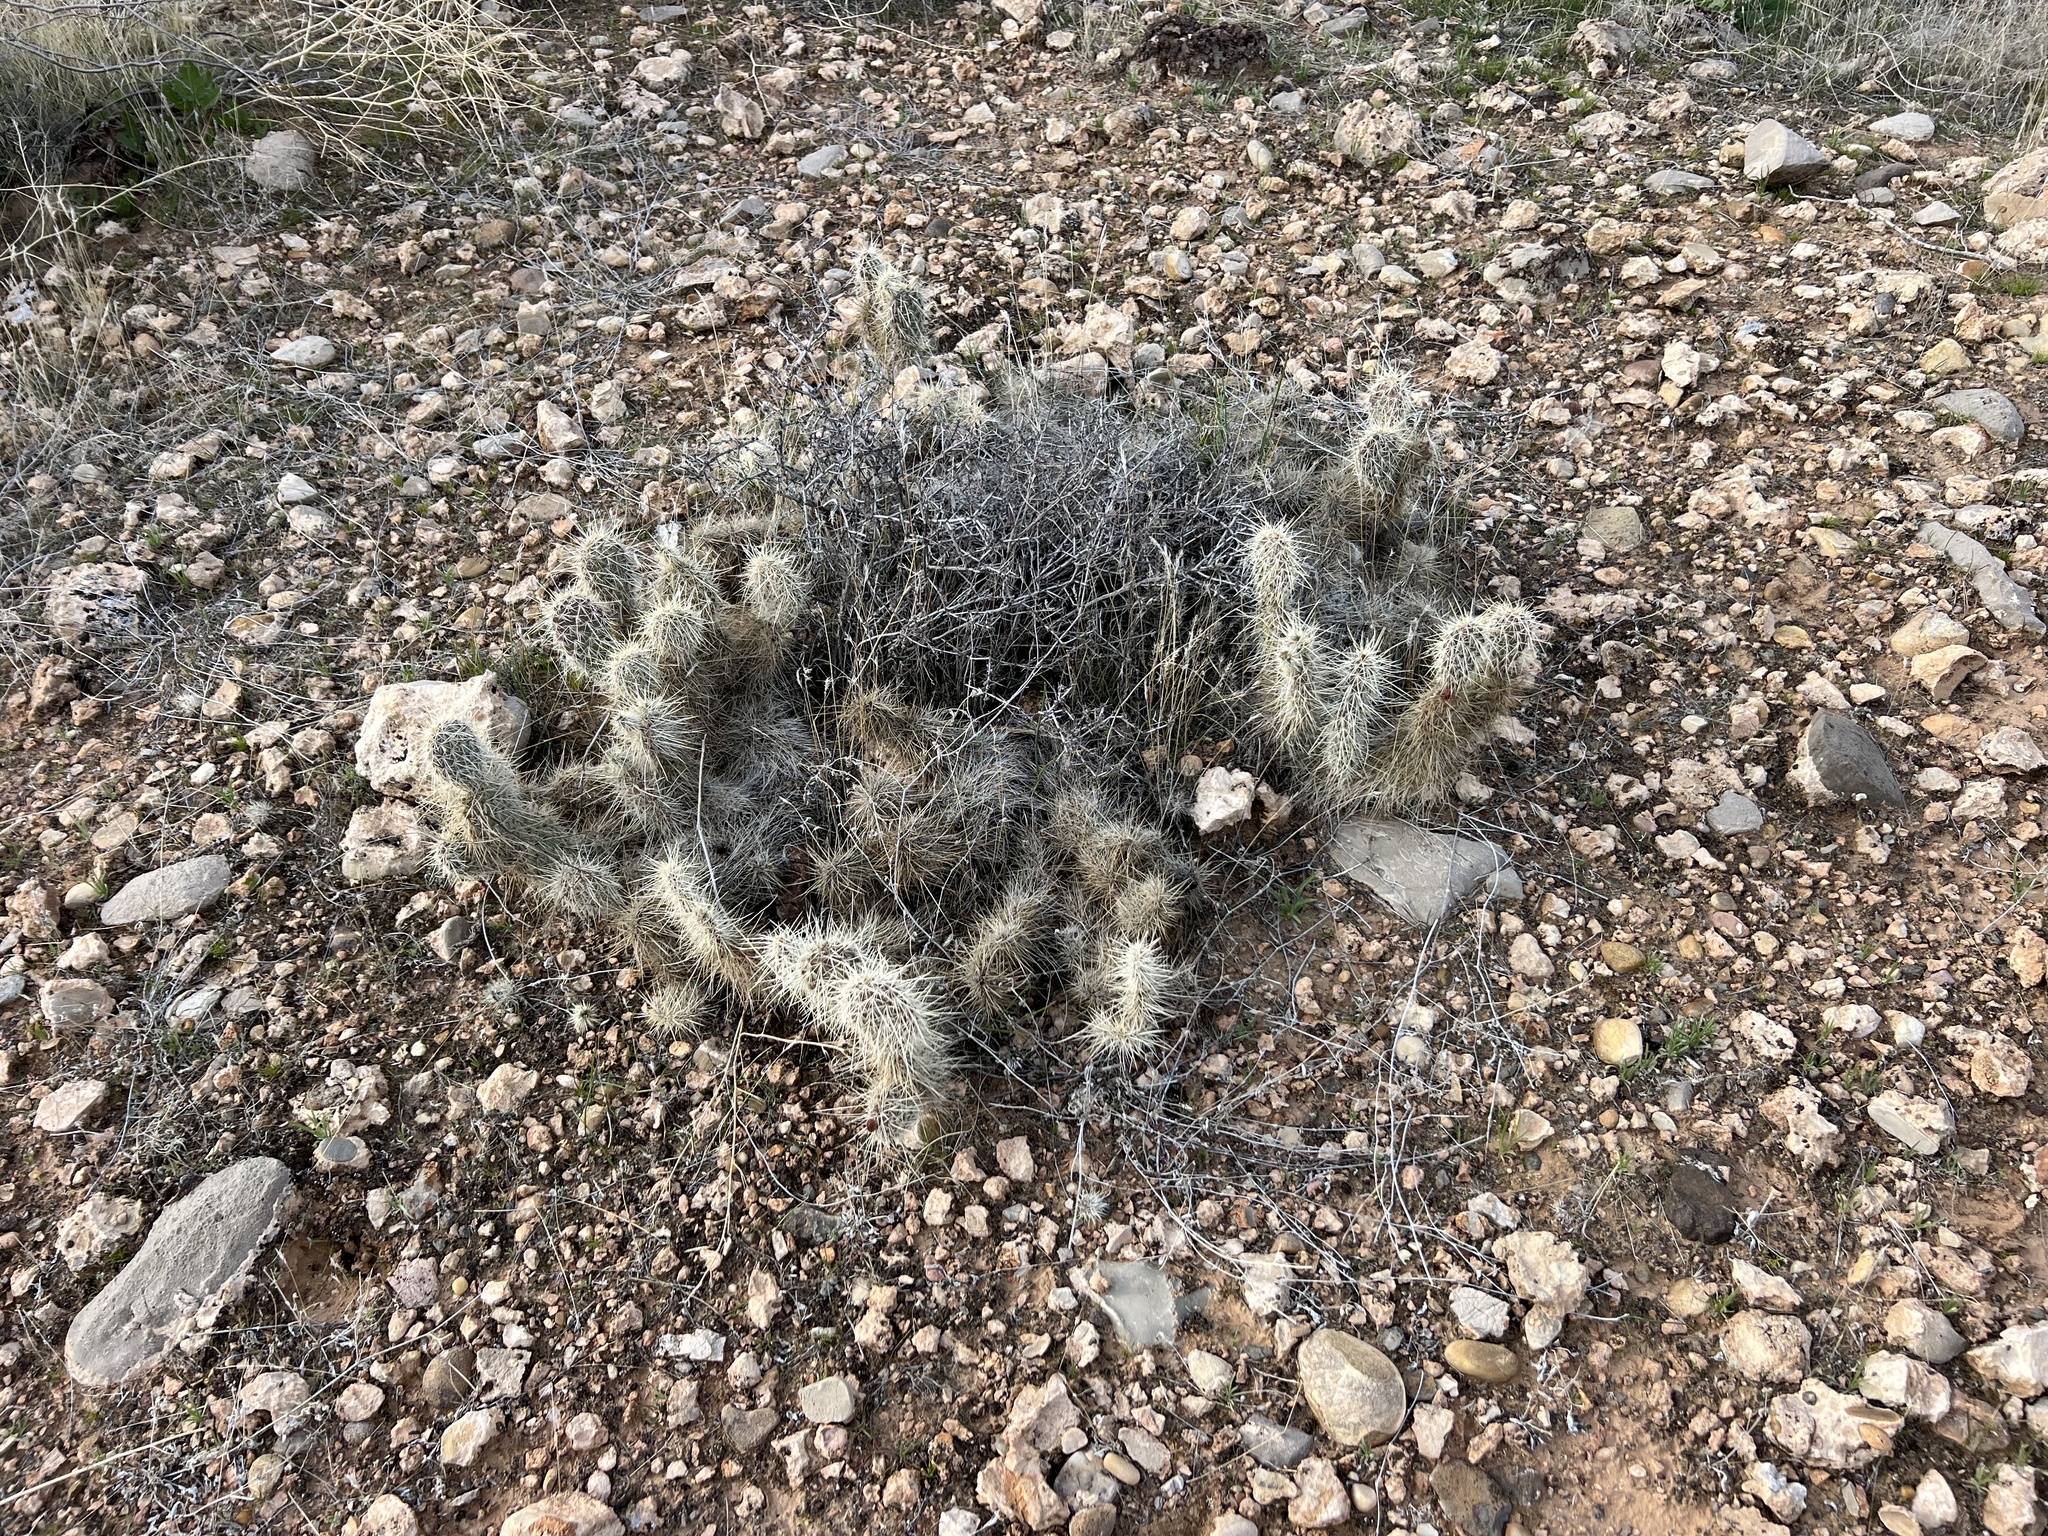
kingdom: Plantae
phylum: Tracheophyta
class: Magnoliopsida
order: Caryophyllales
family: Cactaceae
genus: Opuntia
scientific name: Opuntia polyacantha
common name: Plains prickly-pear
